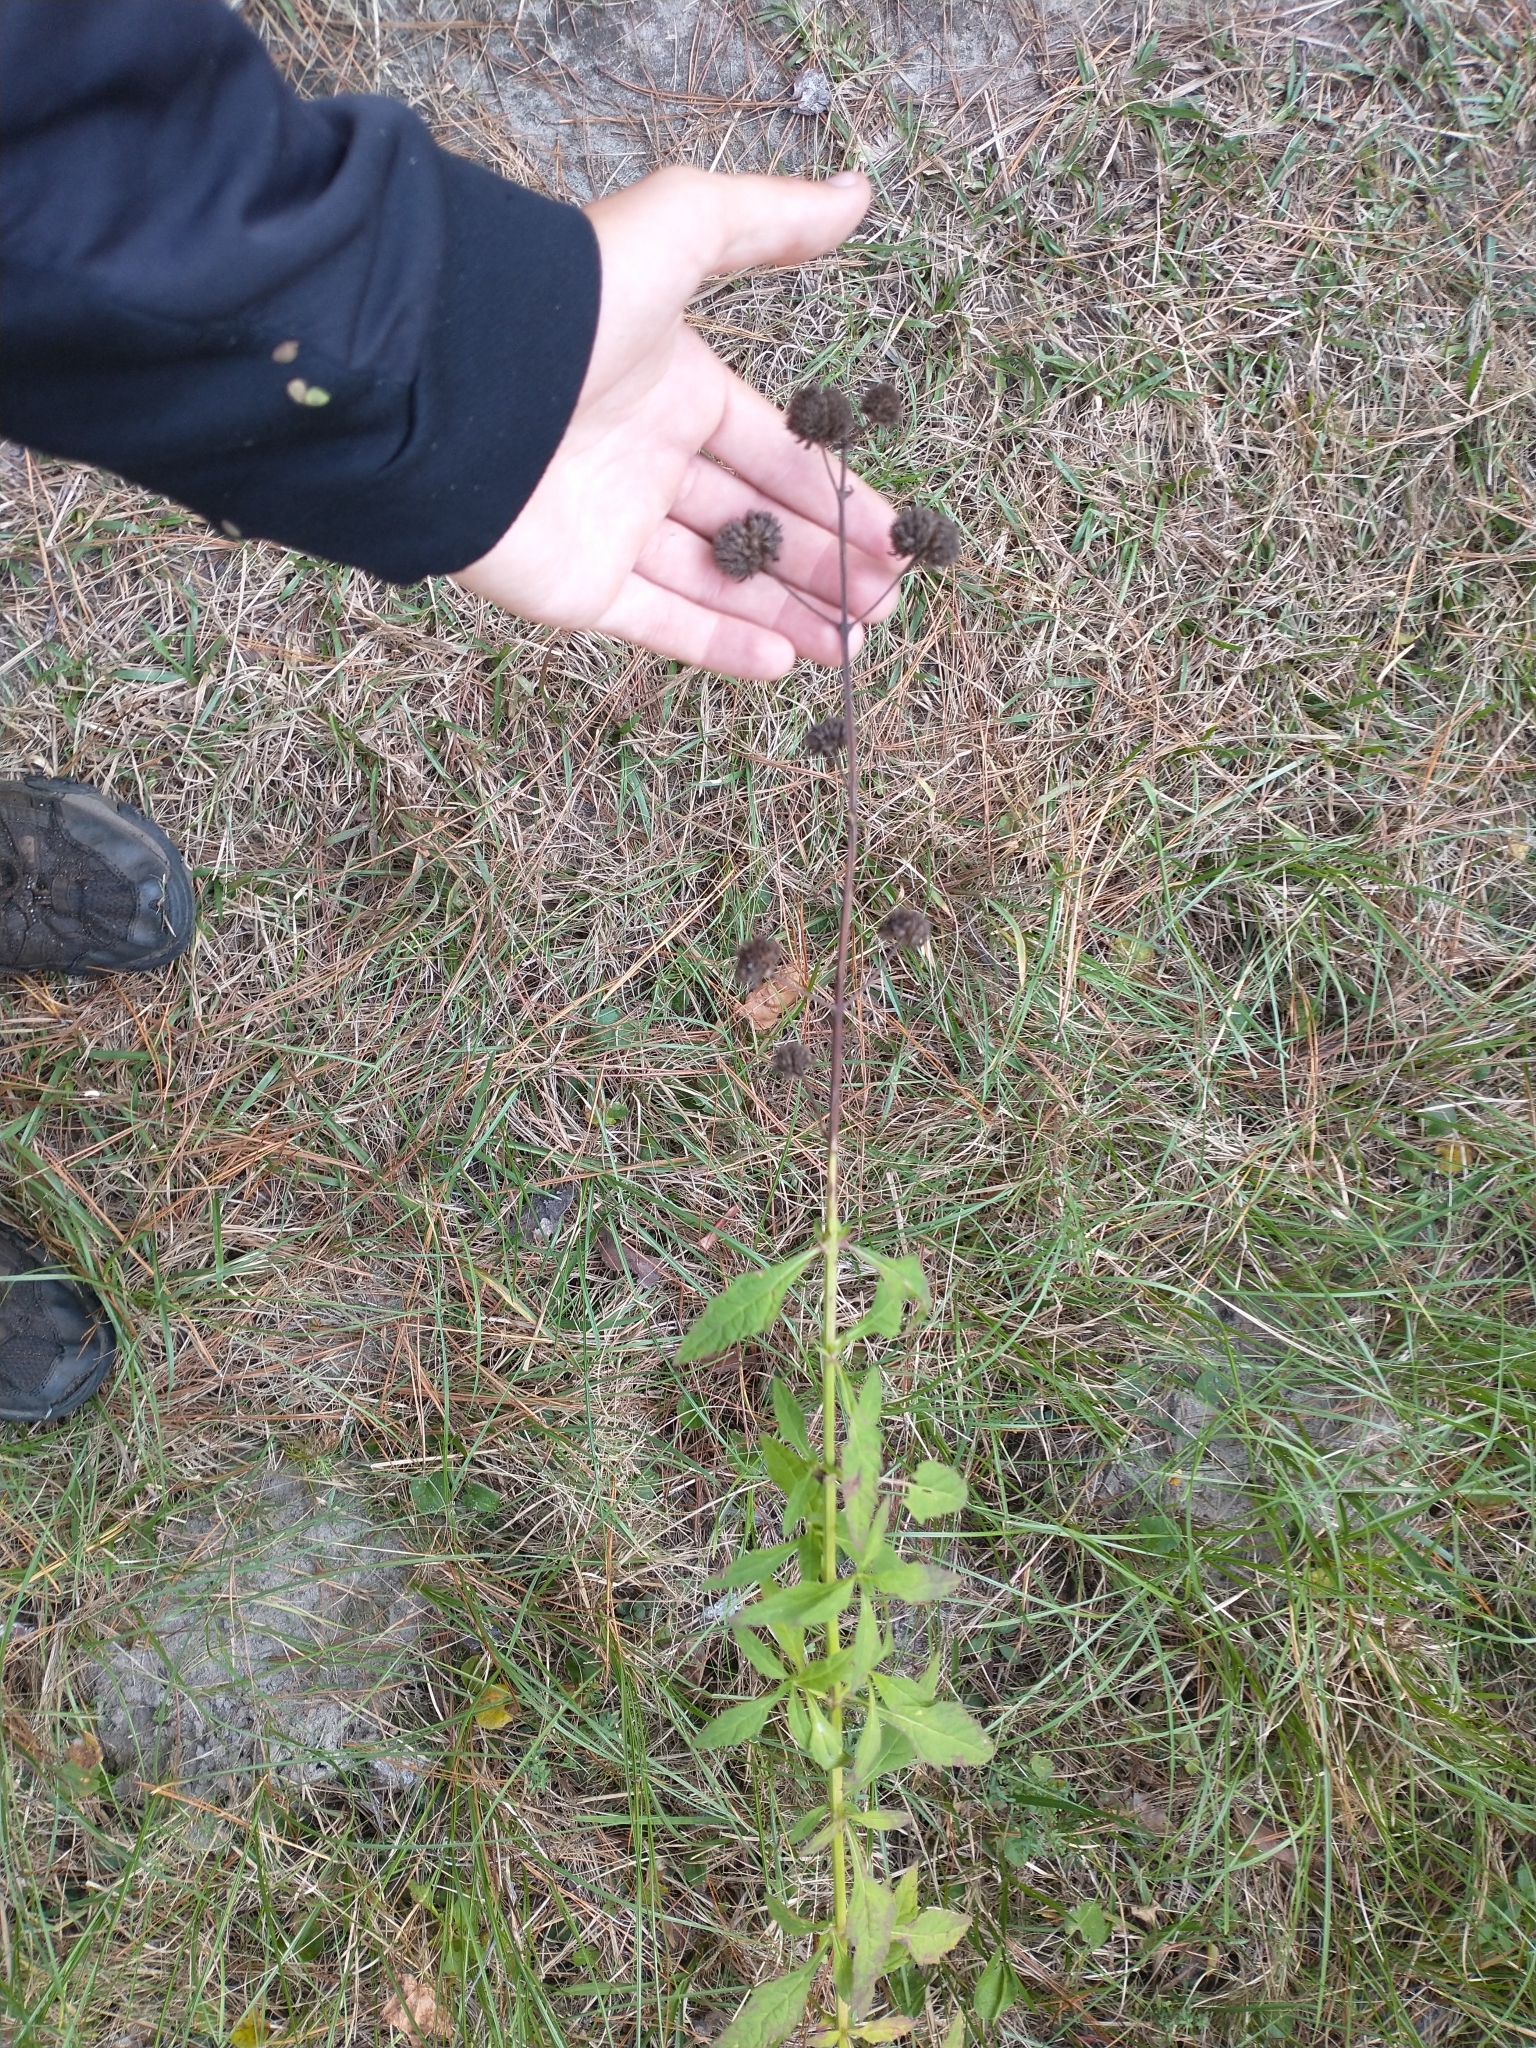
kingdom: Plantae
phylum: Tracheophyta
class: Magnoliopsida
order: Lamiales
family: Lamiaceae
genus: Hyptis
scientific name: Hyptis alata
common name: Cluster bush-mint
